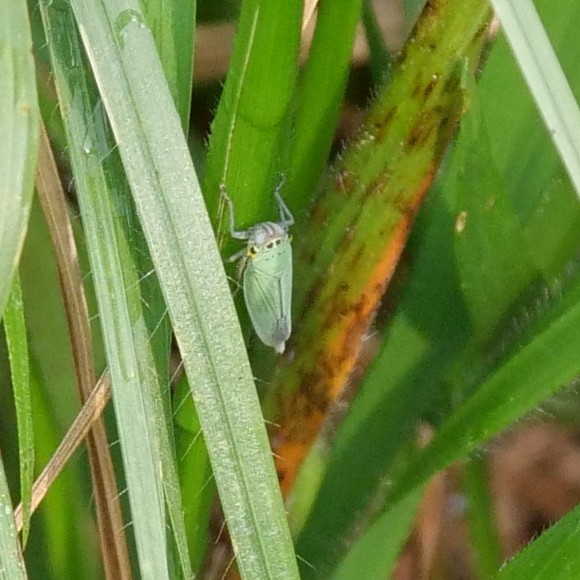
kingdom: Animalia
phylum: Arthropoda
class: Insecta
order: Hemiptera
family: Cicadellidae
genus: Cicadella
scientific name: Cicadella viridis
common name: Leafhopper
